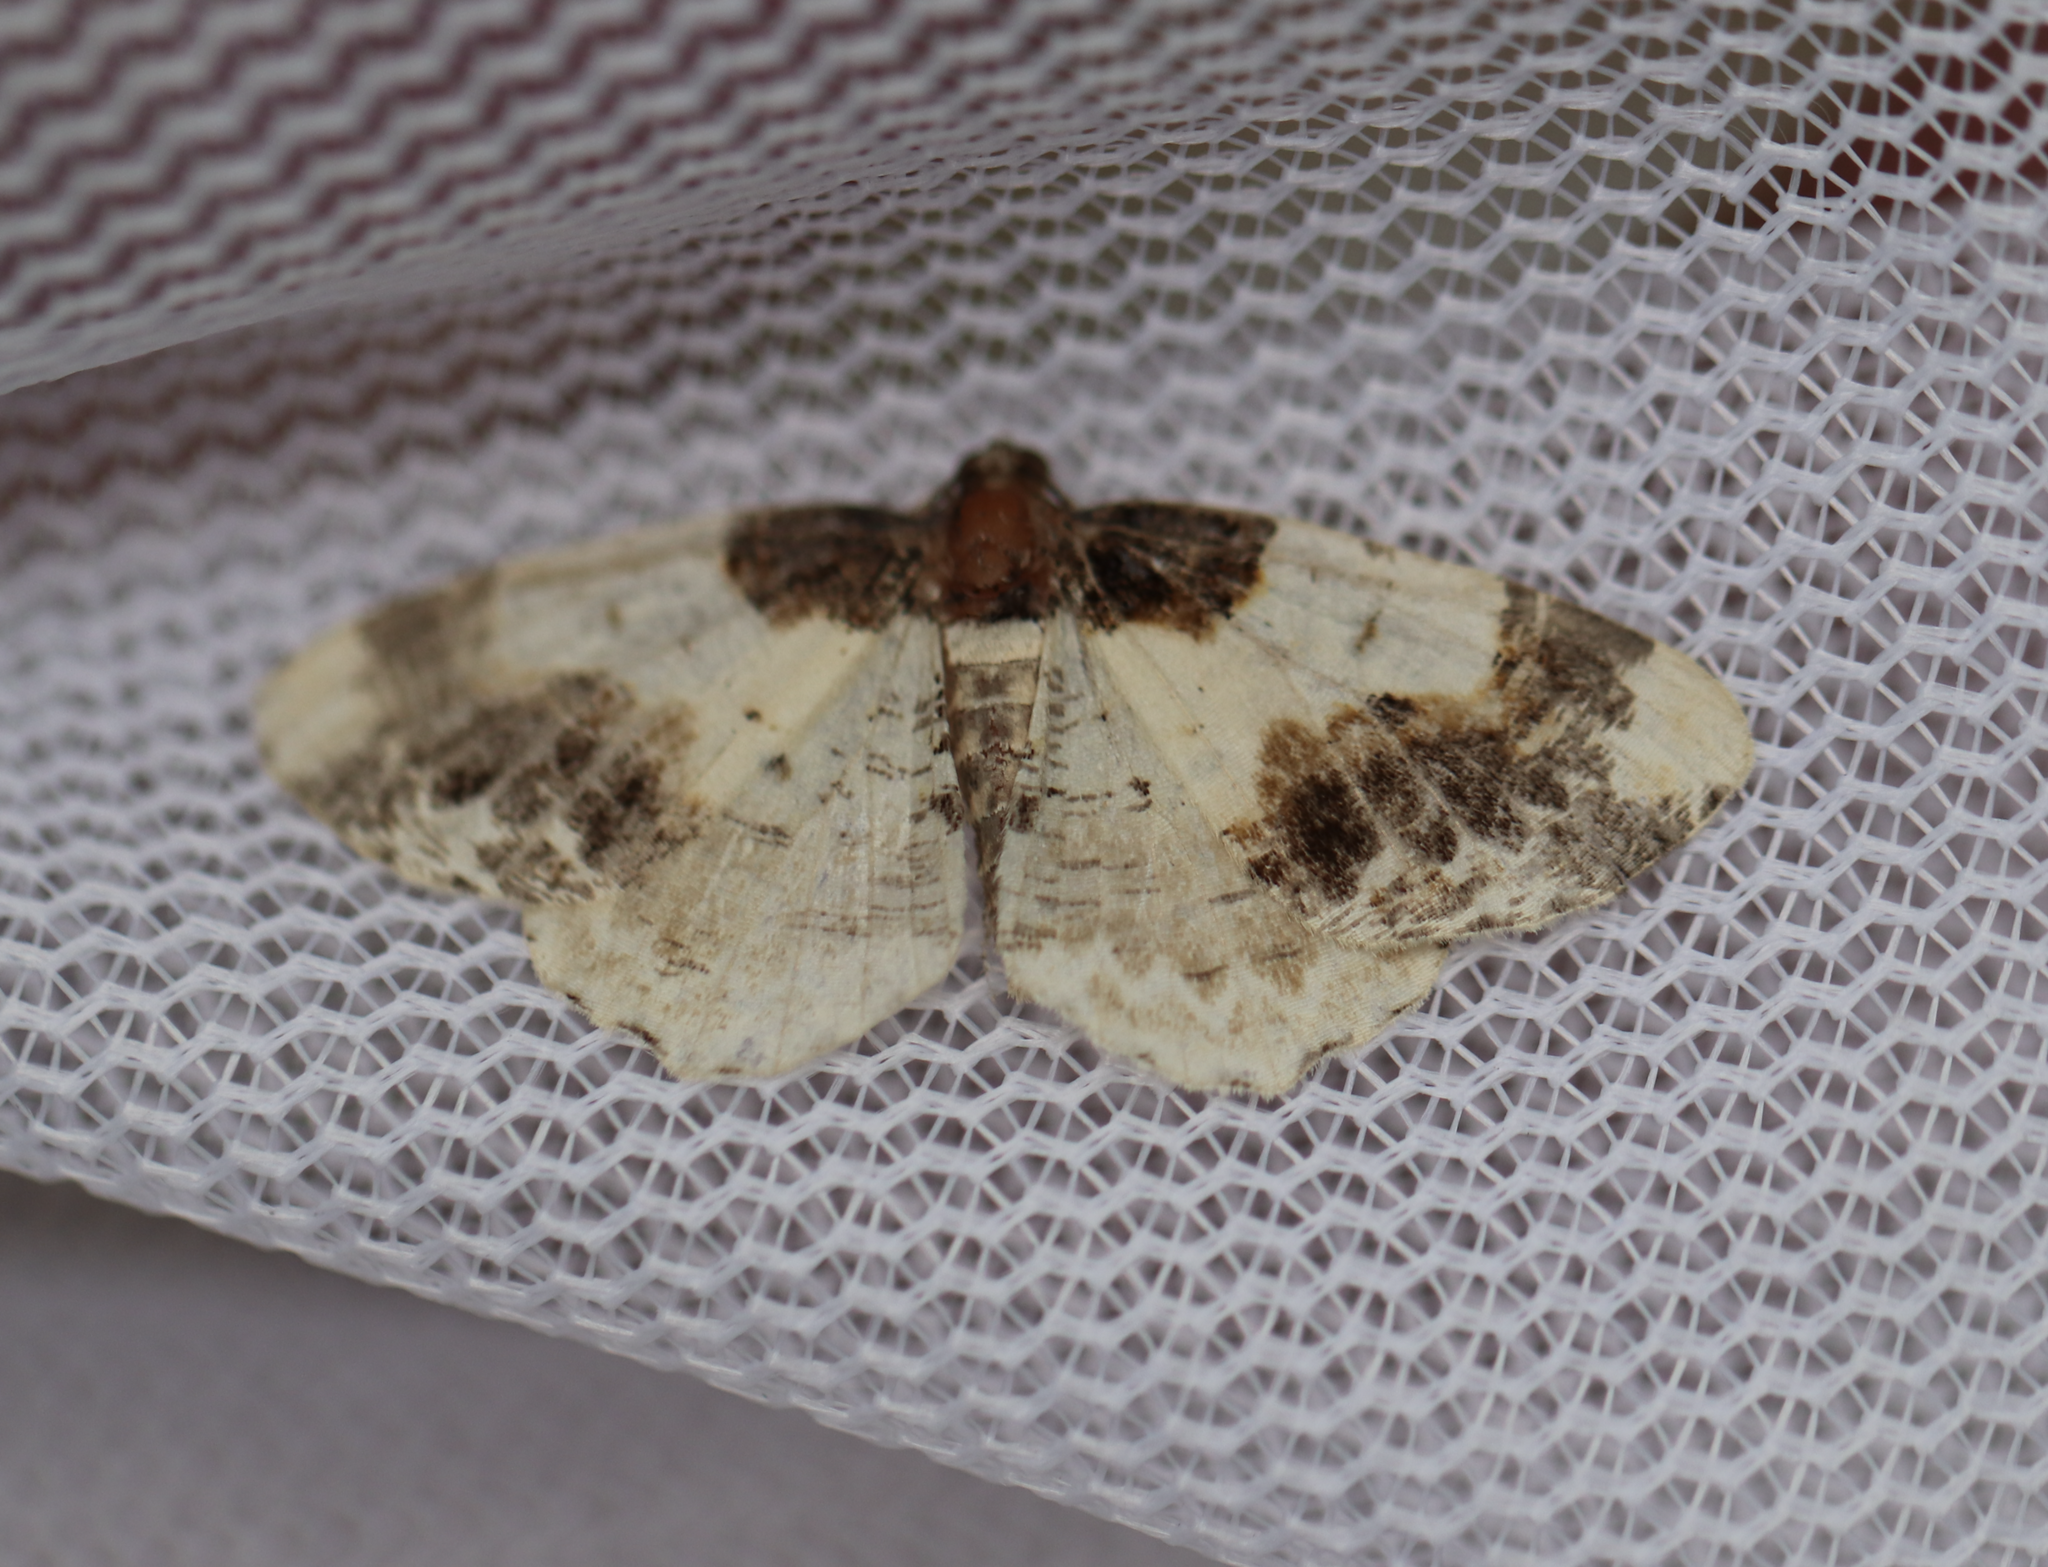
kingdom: Animalia
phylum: Arthropoda
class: Insecta
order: Lepidoptera
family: Geometridae
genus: Ligdia
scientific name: Ligdia adustata
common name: Scorched carpet
